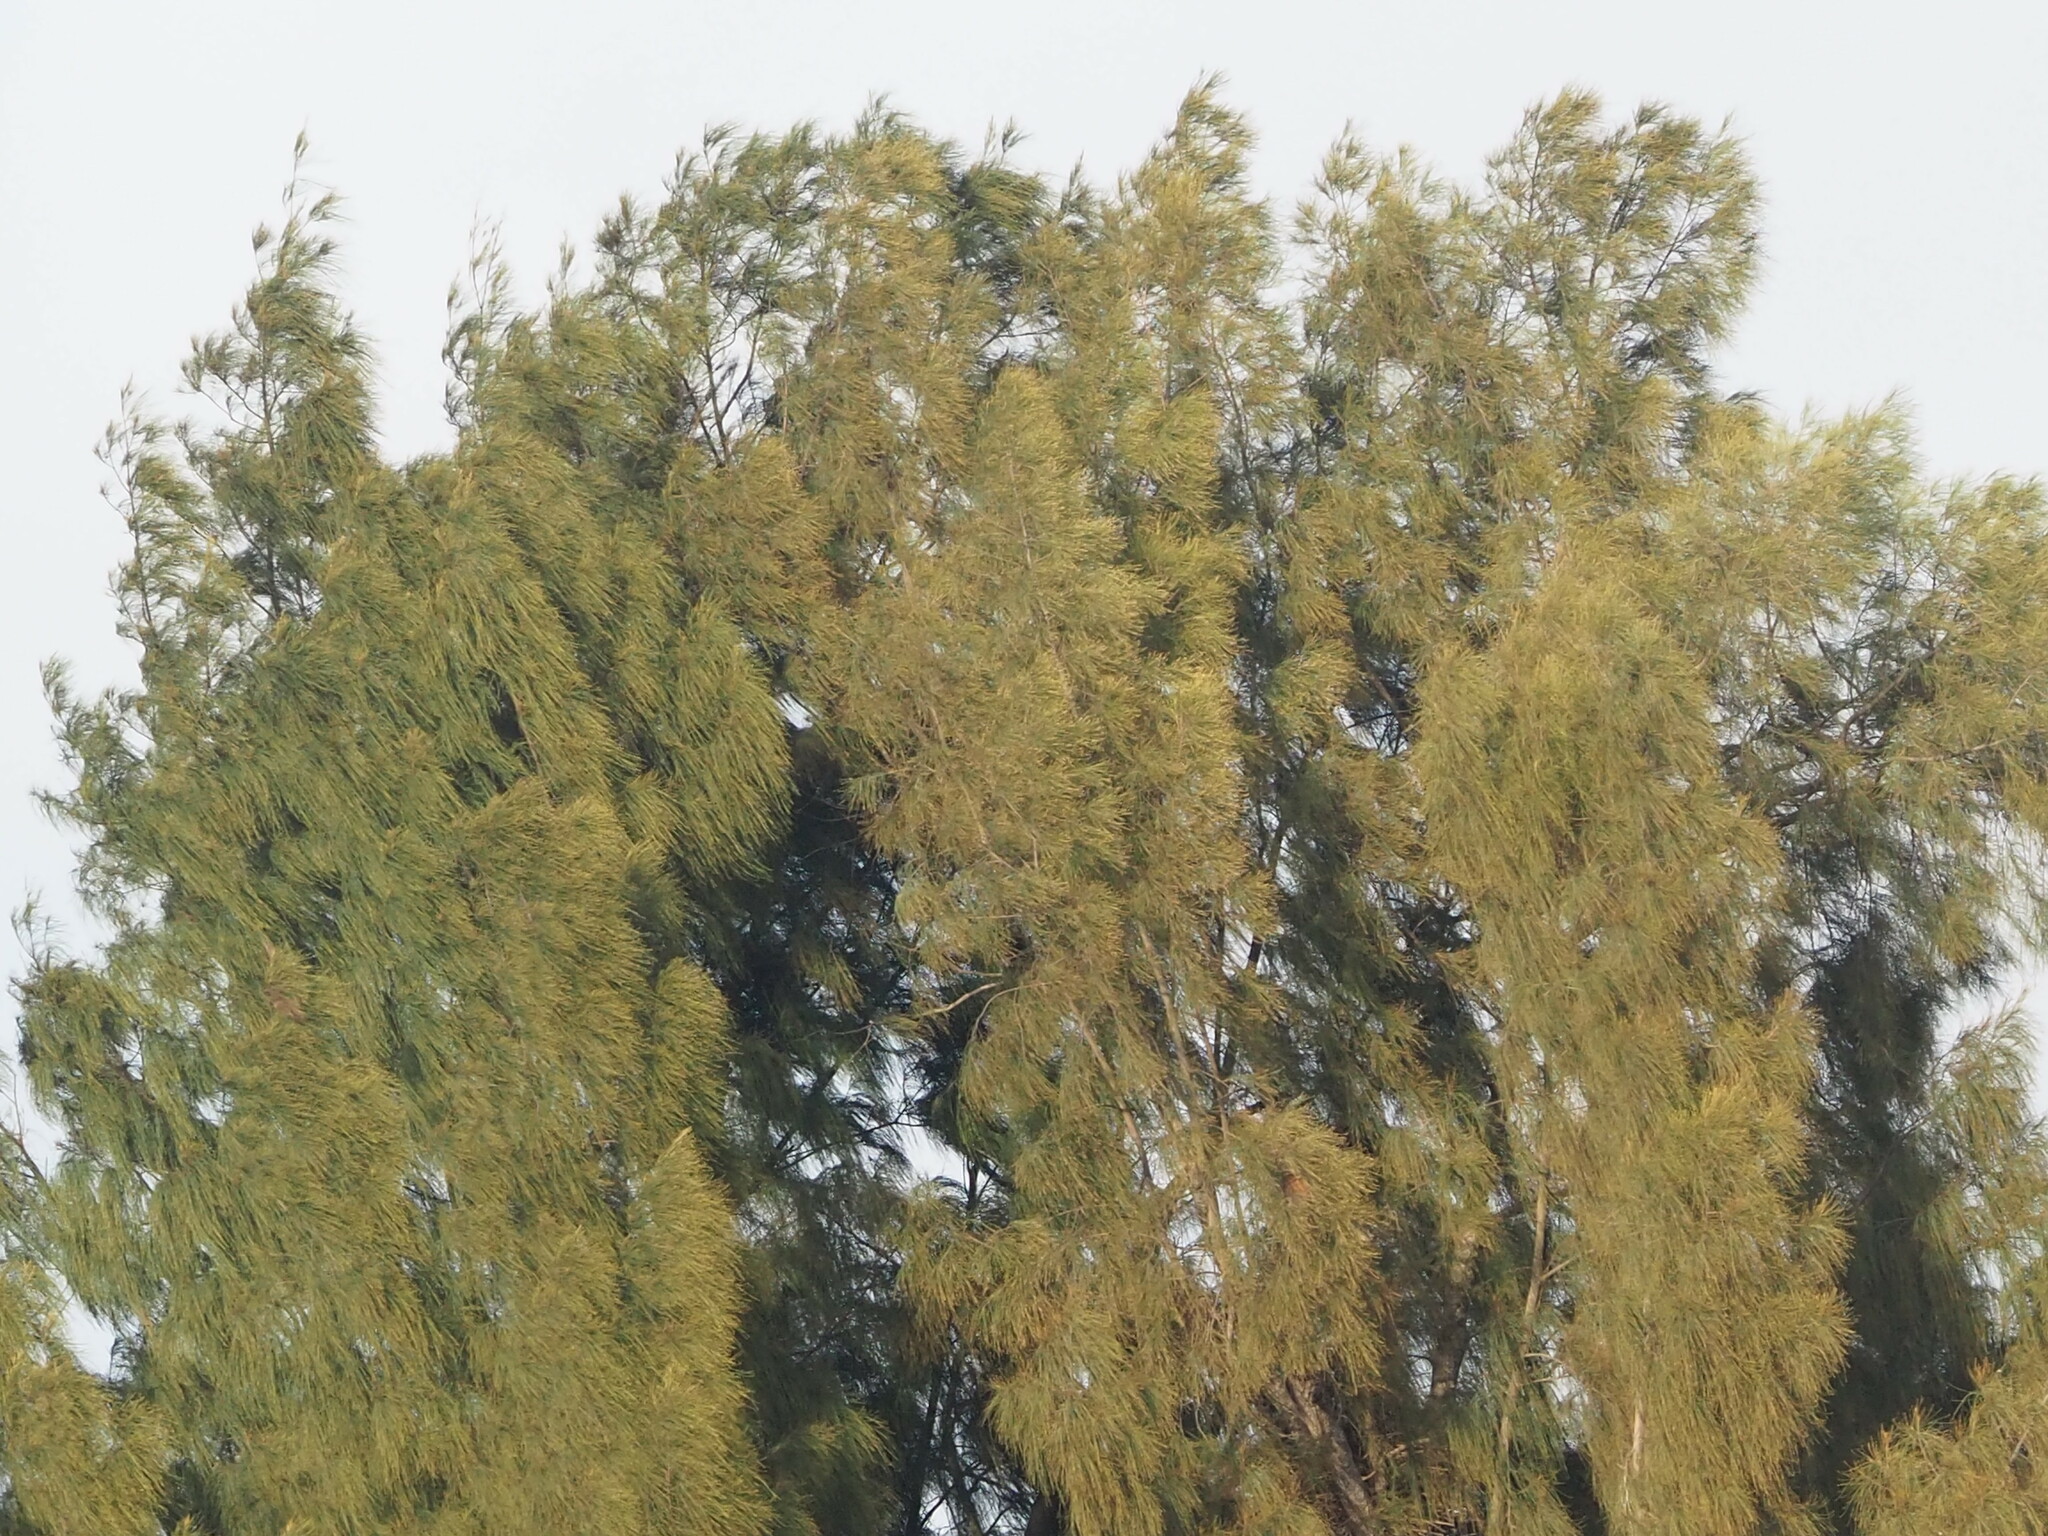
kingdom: Plantae
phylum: Tracheophyta
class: Magnoliopsida
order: Fagales
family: Casuarinaceae
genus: Casuarina
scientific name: Casuarina equisetifolia
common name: Beach sheoak
